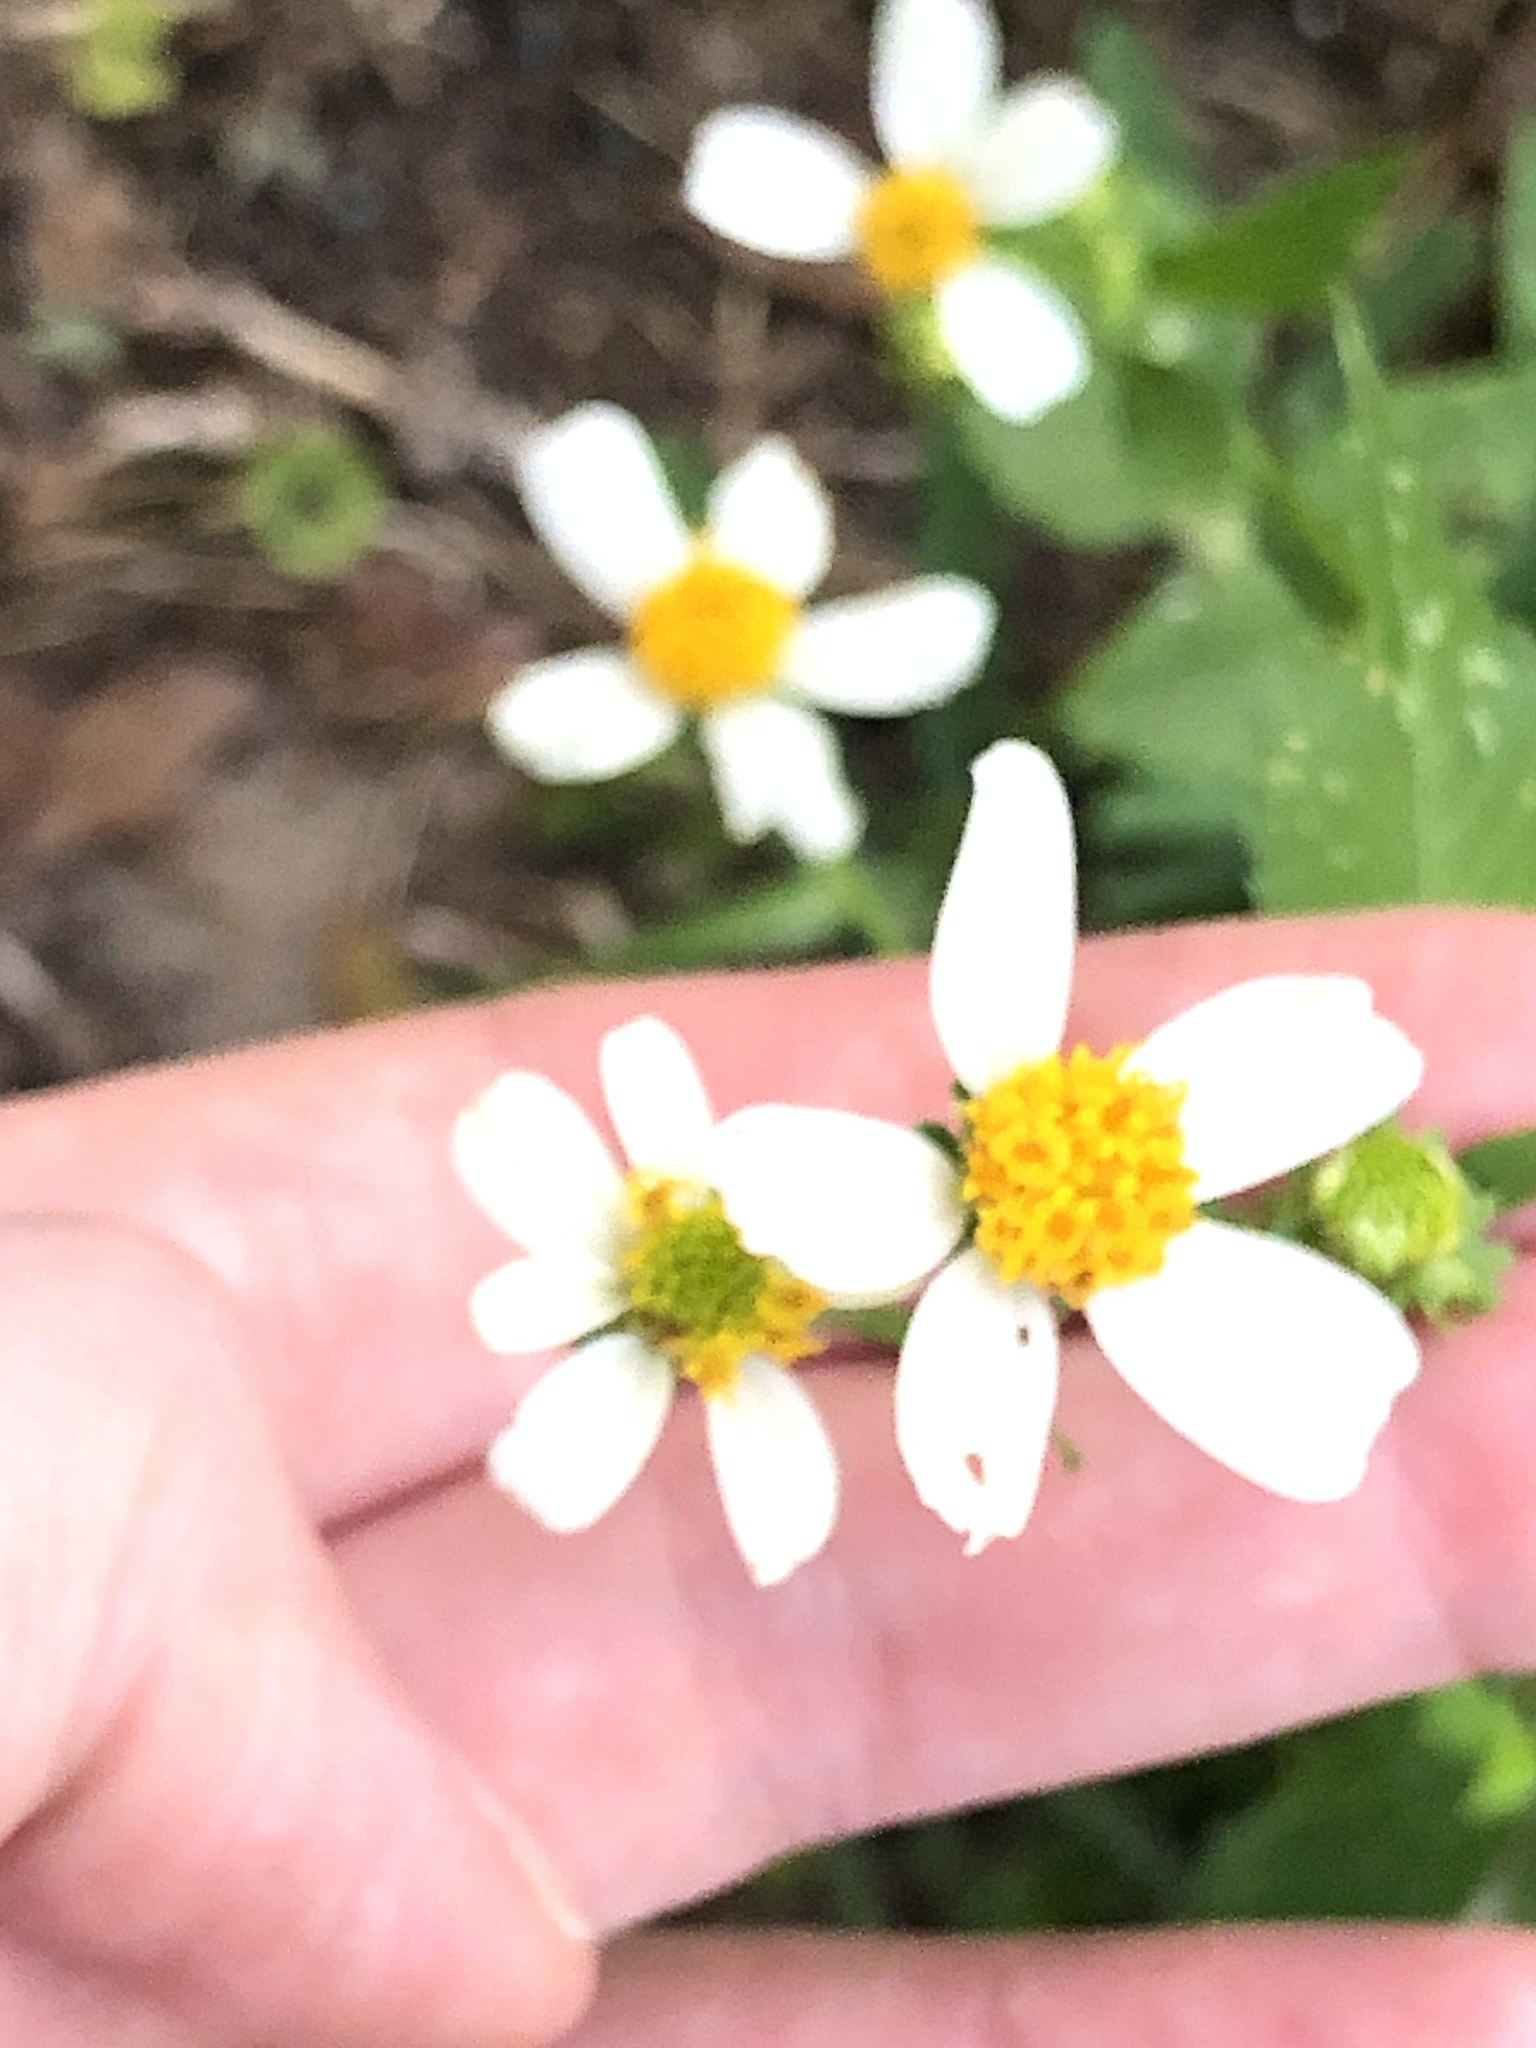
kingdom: Plantae
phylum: Tracheophyta
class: Magnoliopsida
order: Asterales
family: Asteraceae
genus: Bidens
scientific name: Bidens alba
